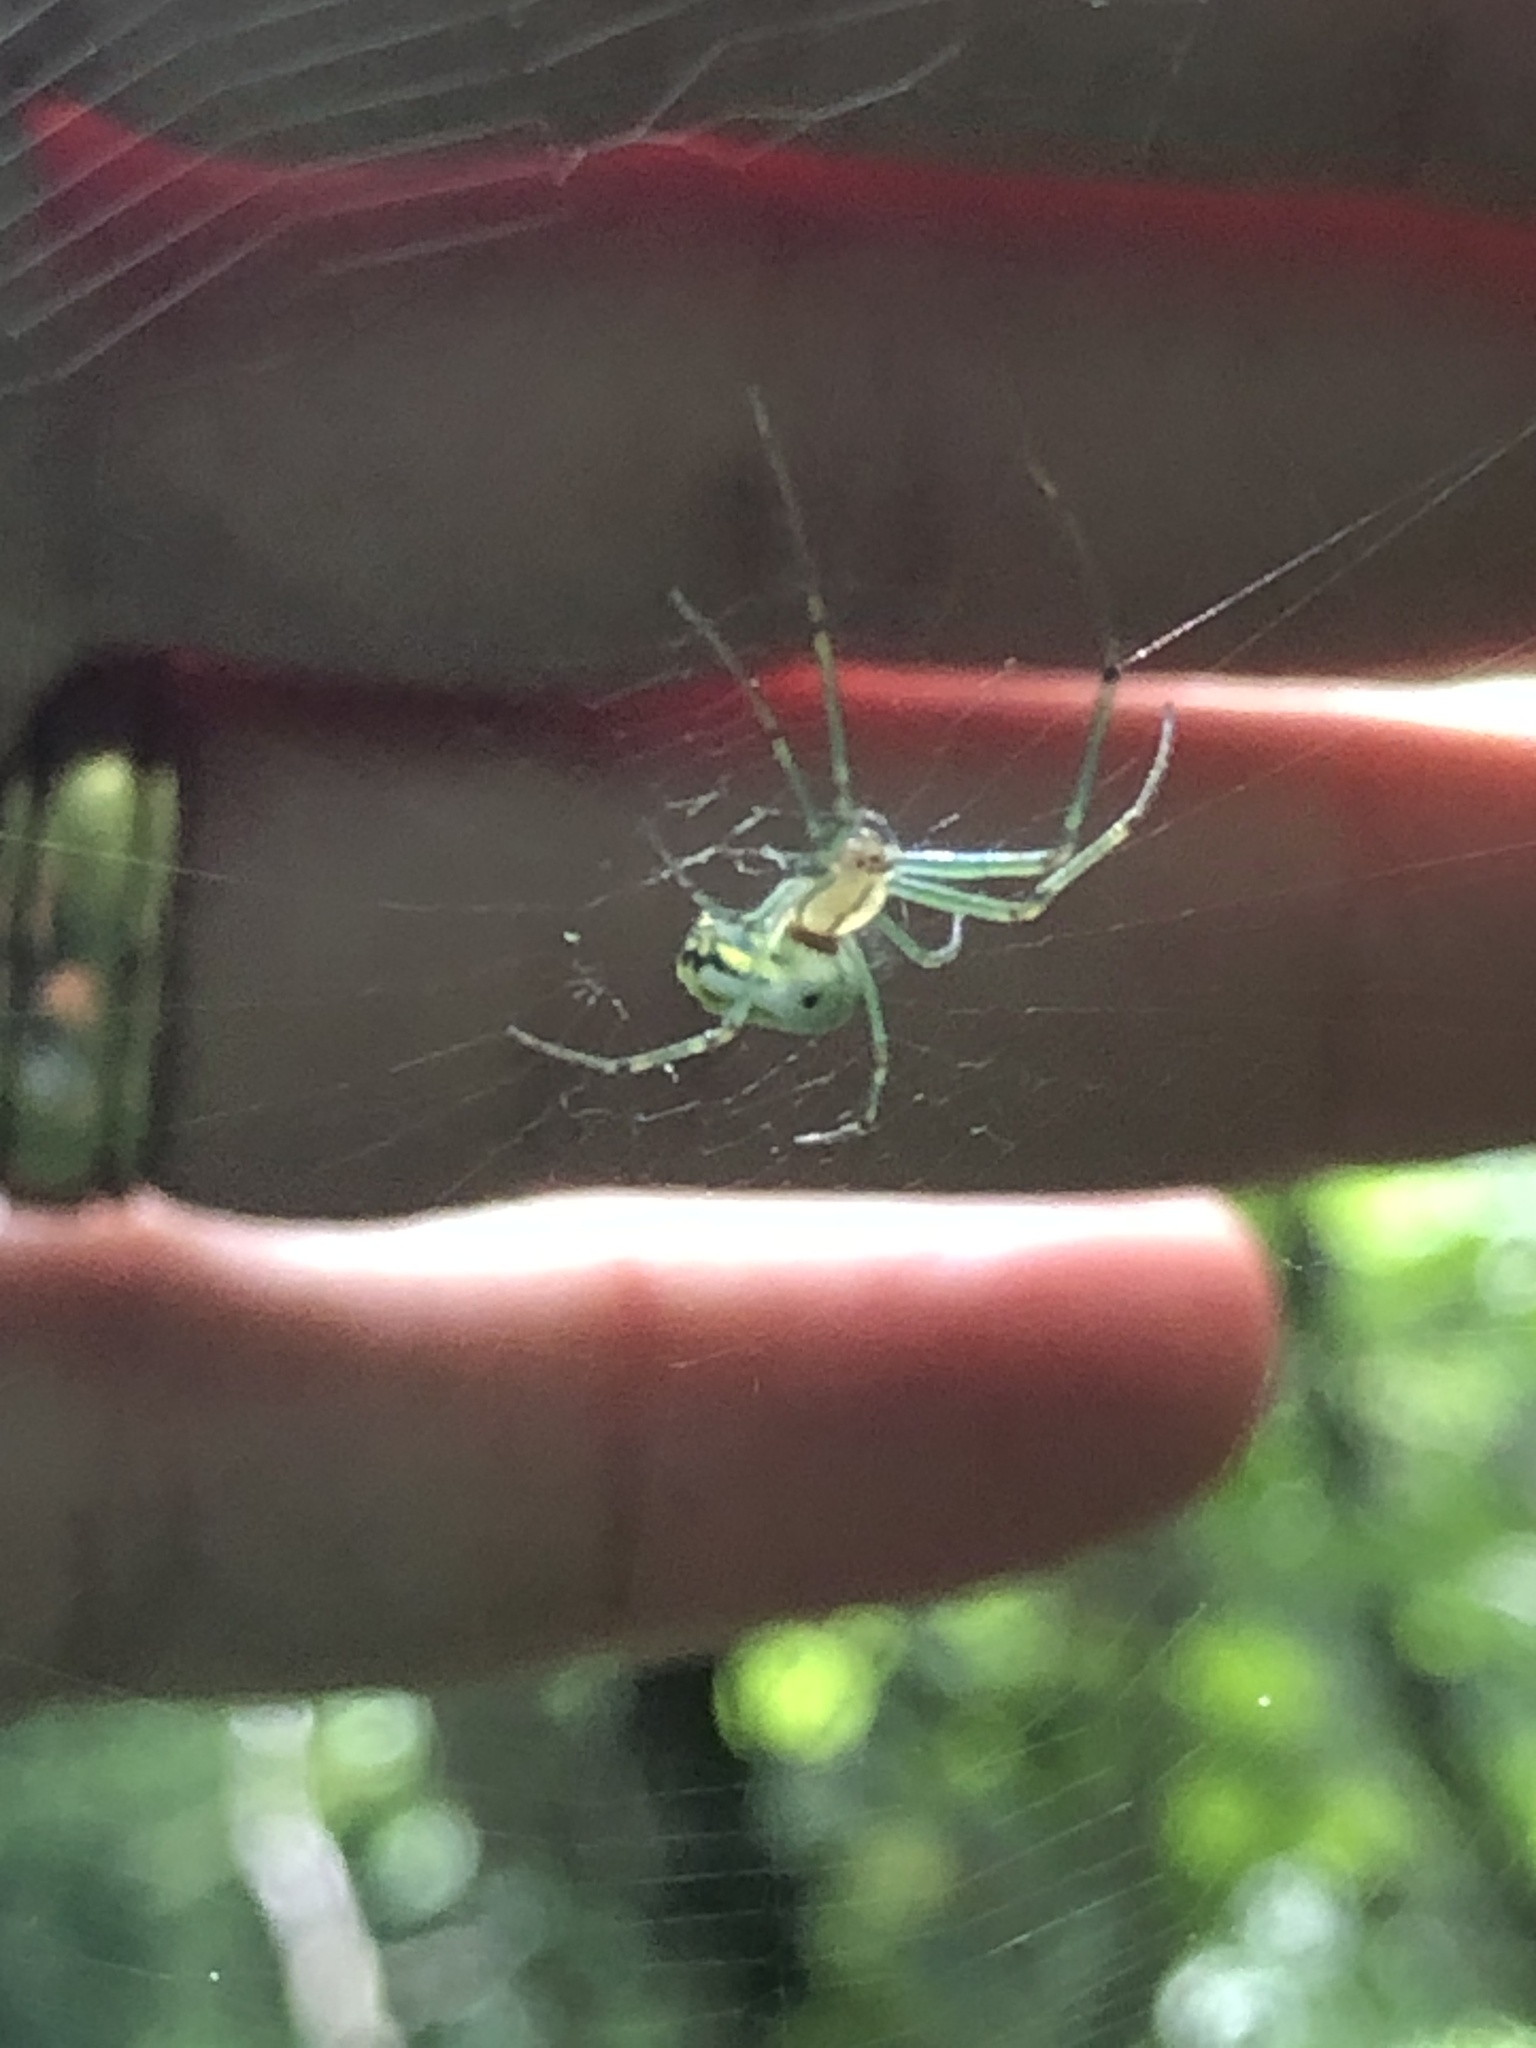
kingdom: Animalia
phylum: Arthropoda
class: Arachnida
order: Araneae
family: Tetragnathidae
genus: Leucauge
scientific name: Leucauge venusta
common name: Longjawed orb weavers
